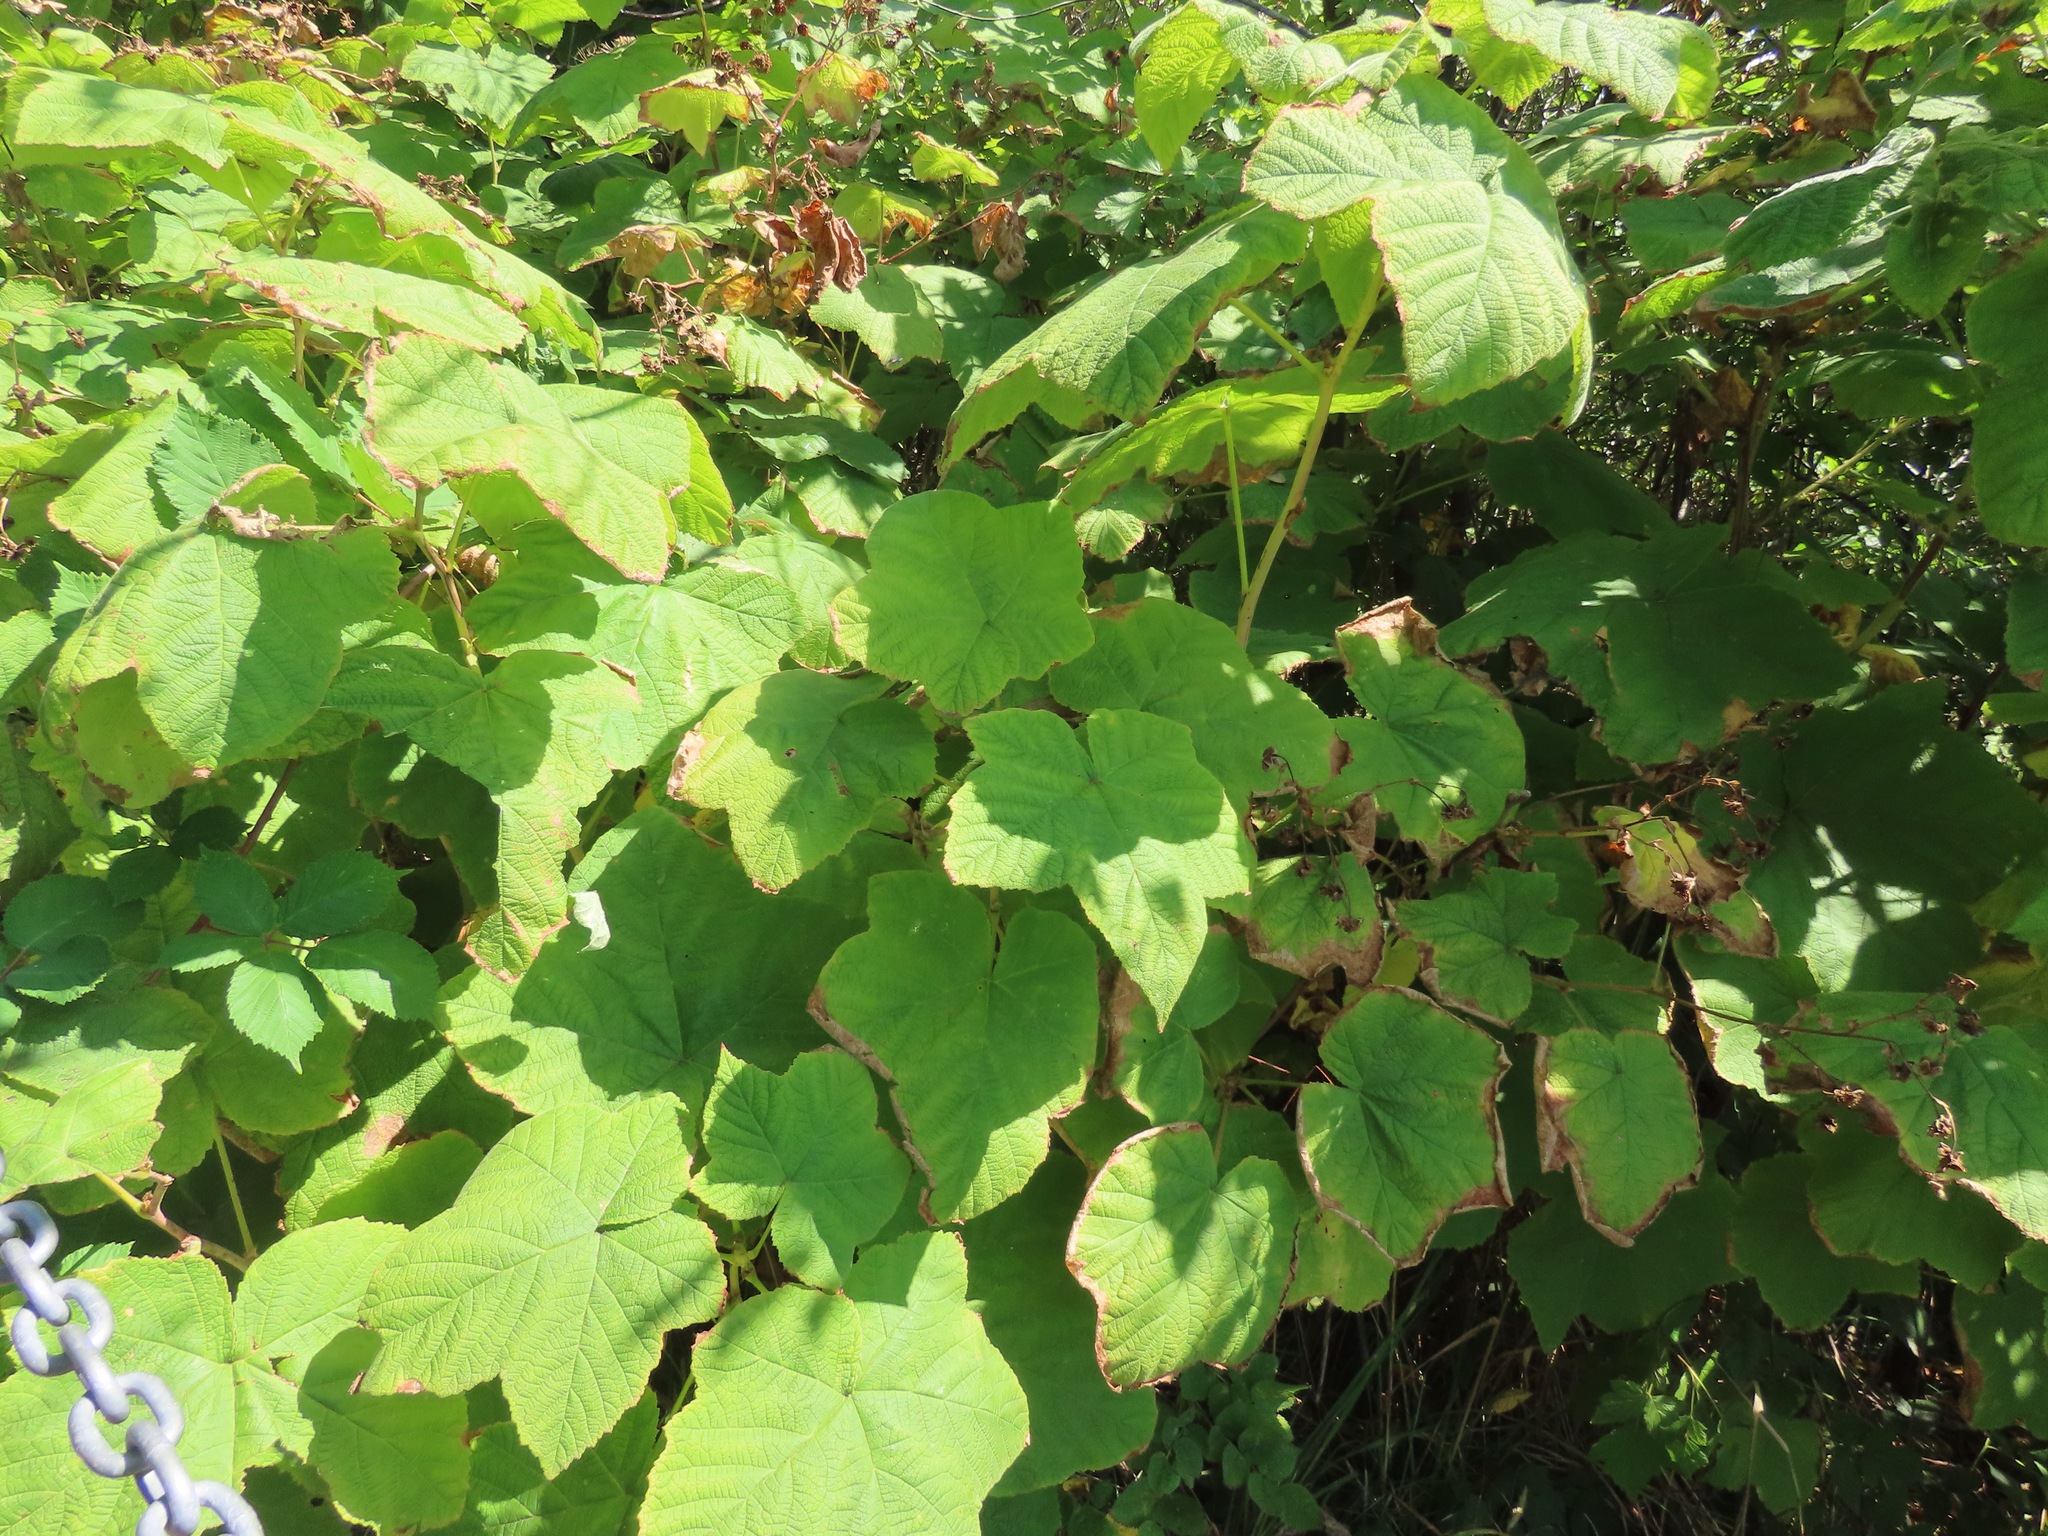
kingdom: Plantae
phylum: Tracheophyta
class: Magnoliopsida
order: Rosales
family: Rosaceae
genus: Rubus
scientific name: Rubus parviflorus
